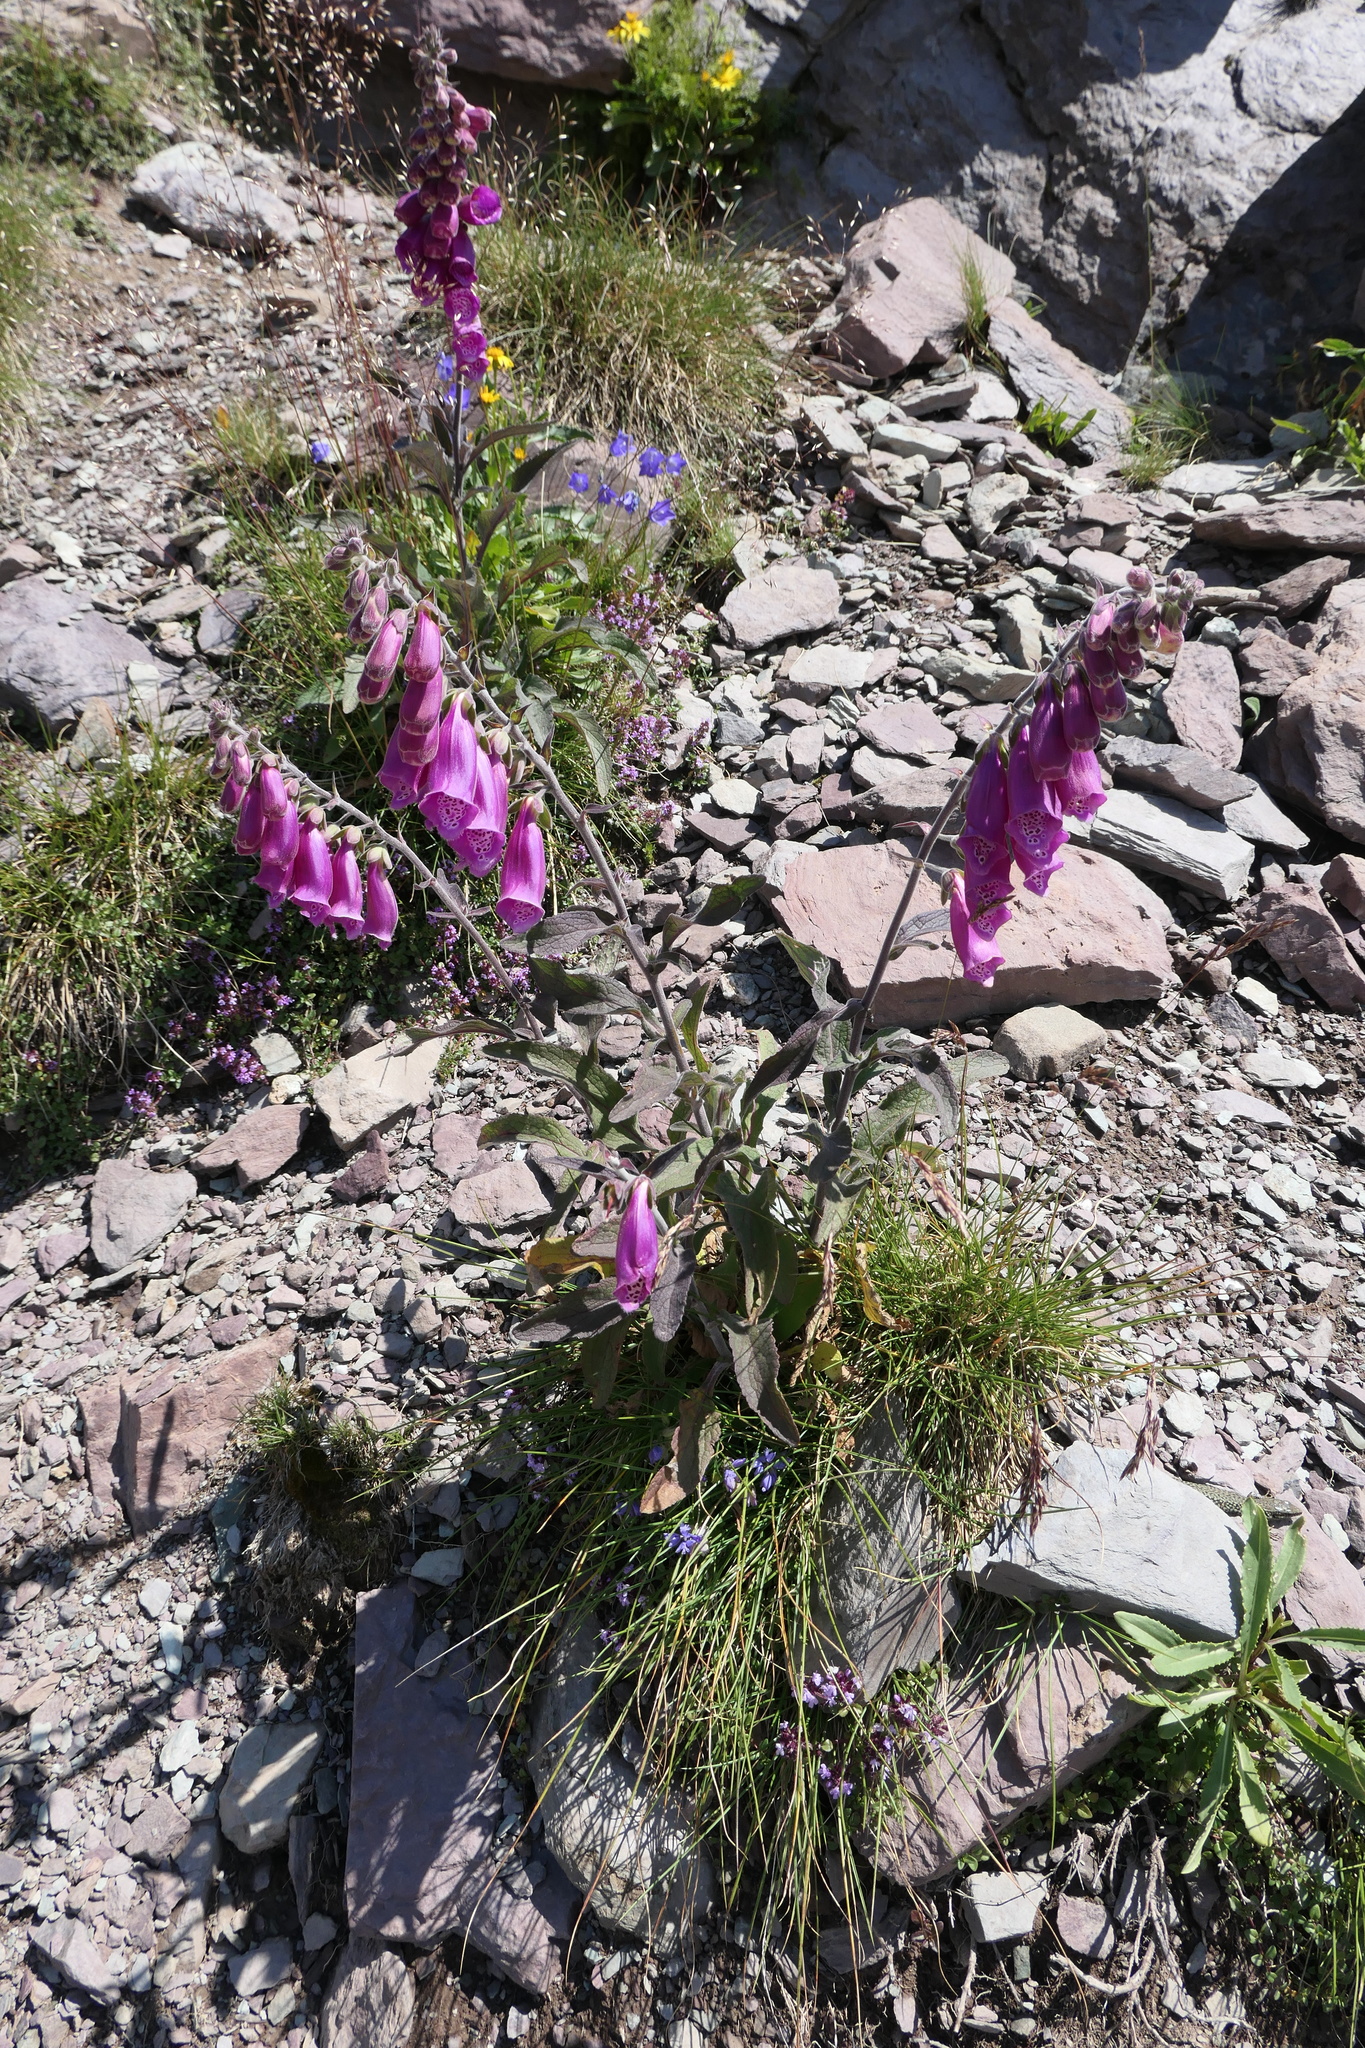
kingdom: Plantae
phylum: Tracheophyta
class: Magnoliopsida
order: Lamiales
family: Plantaginaceae
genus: Digitalis
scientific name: Digitalis purpurea
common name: Foxglove
